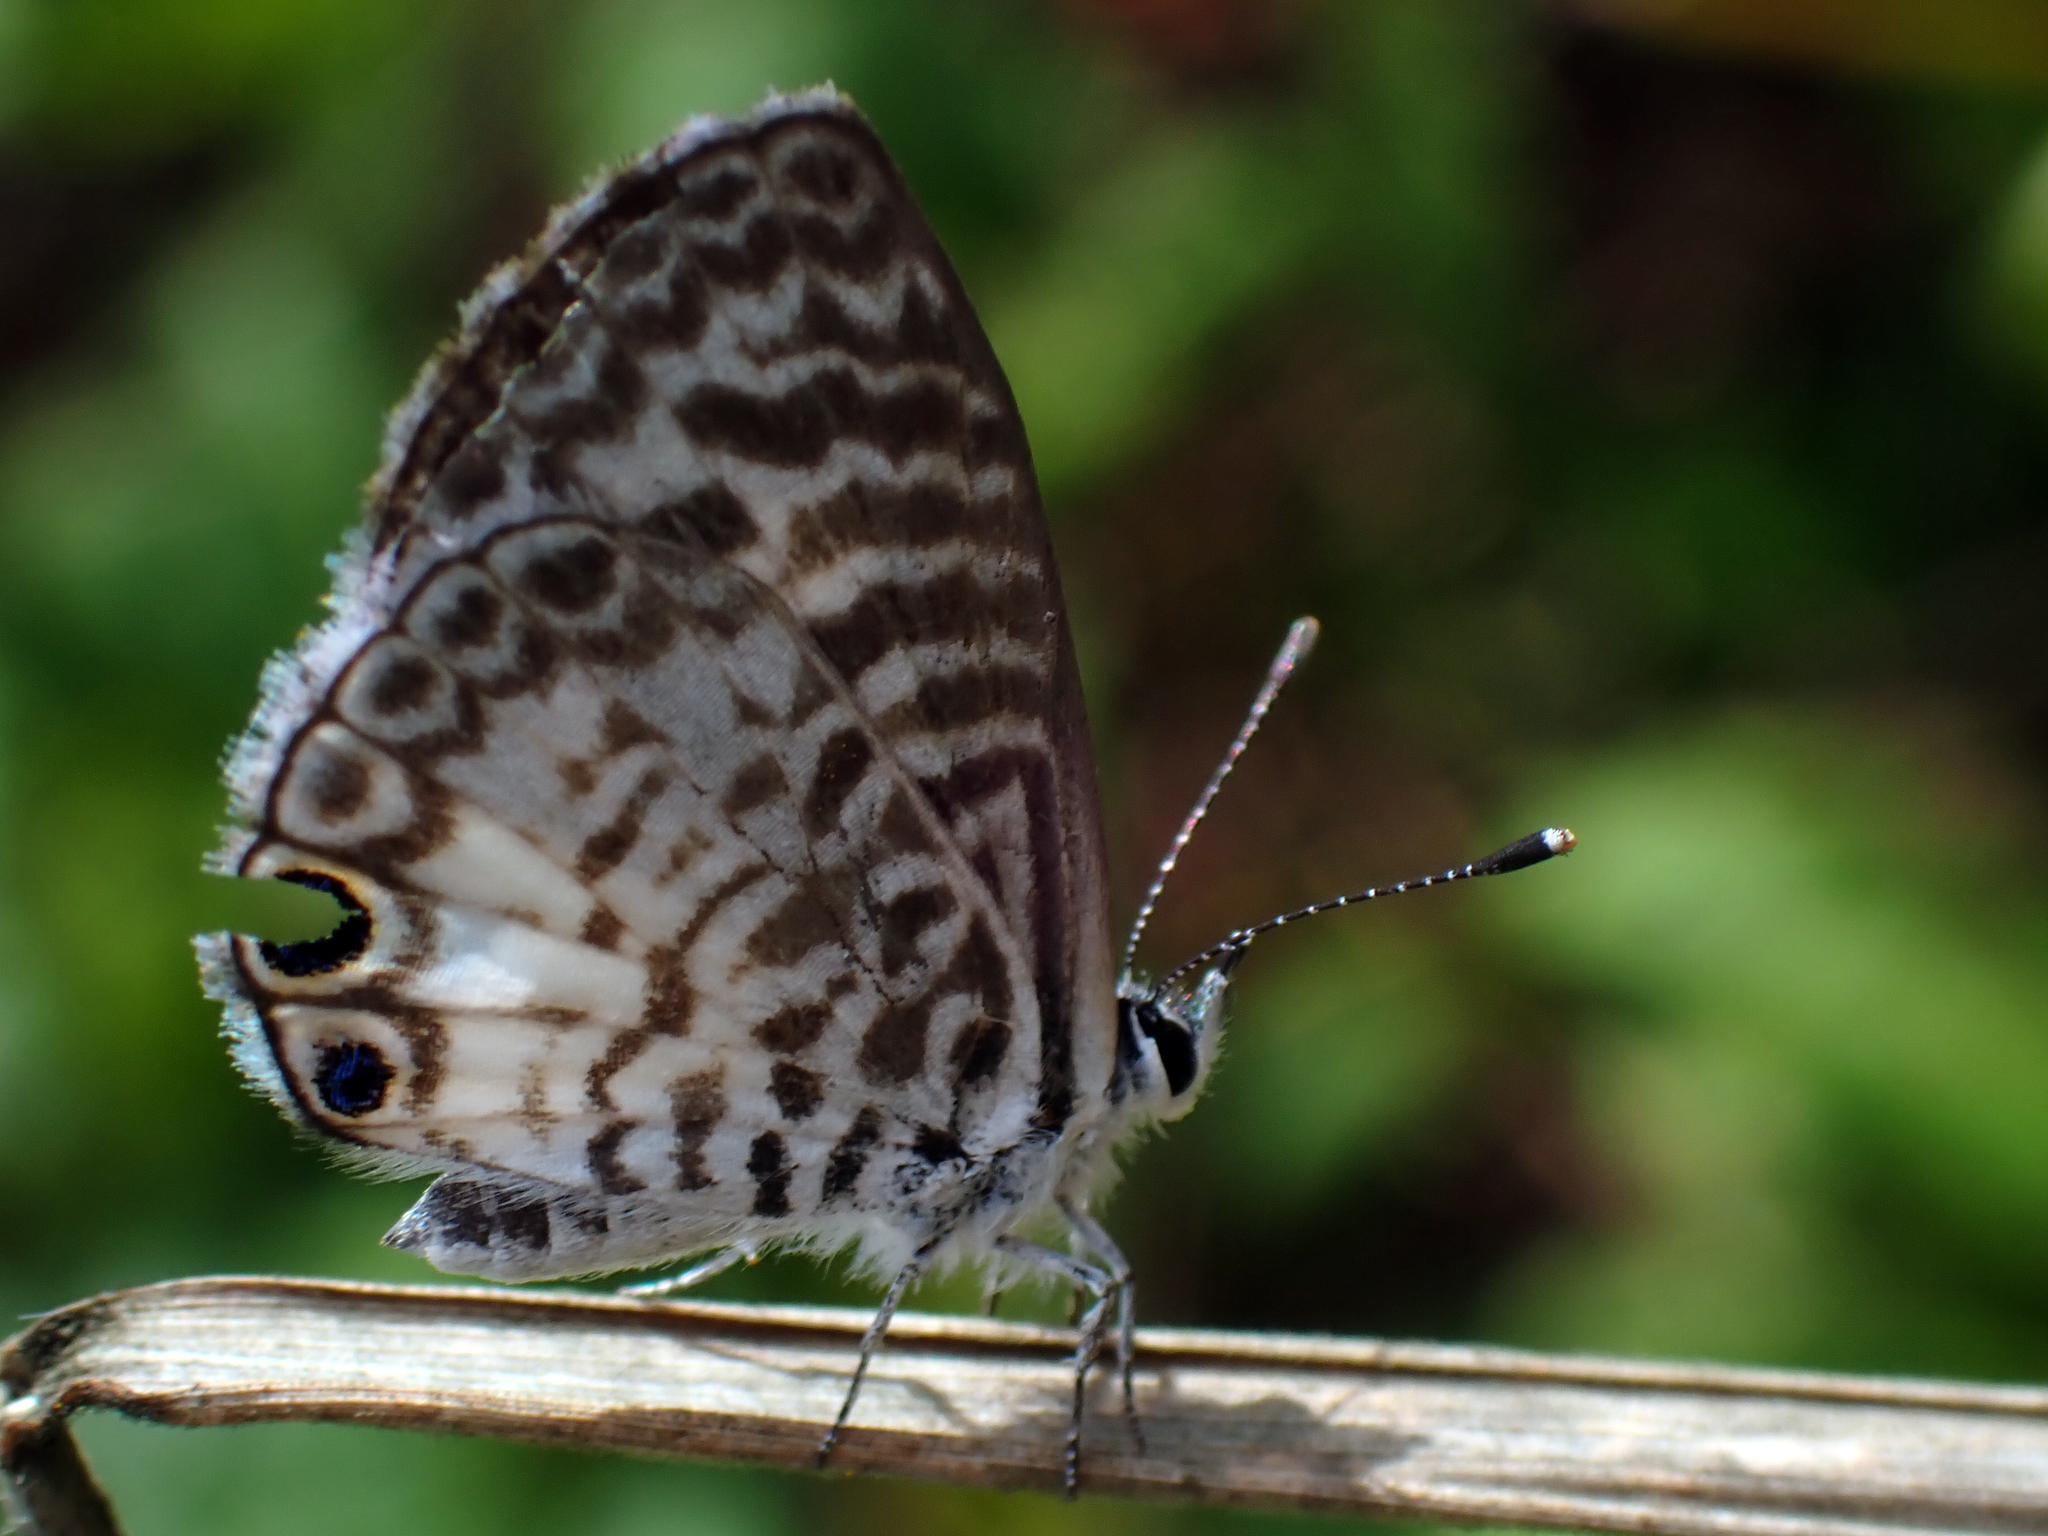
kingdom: Animalia
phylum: Arthropoda
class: Insecta
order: Lepidoptera
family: Lycaenidae
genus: Leptotes
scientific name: Leptotes cassius
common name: Cassius blue
